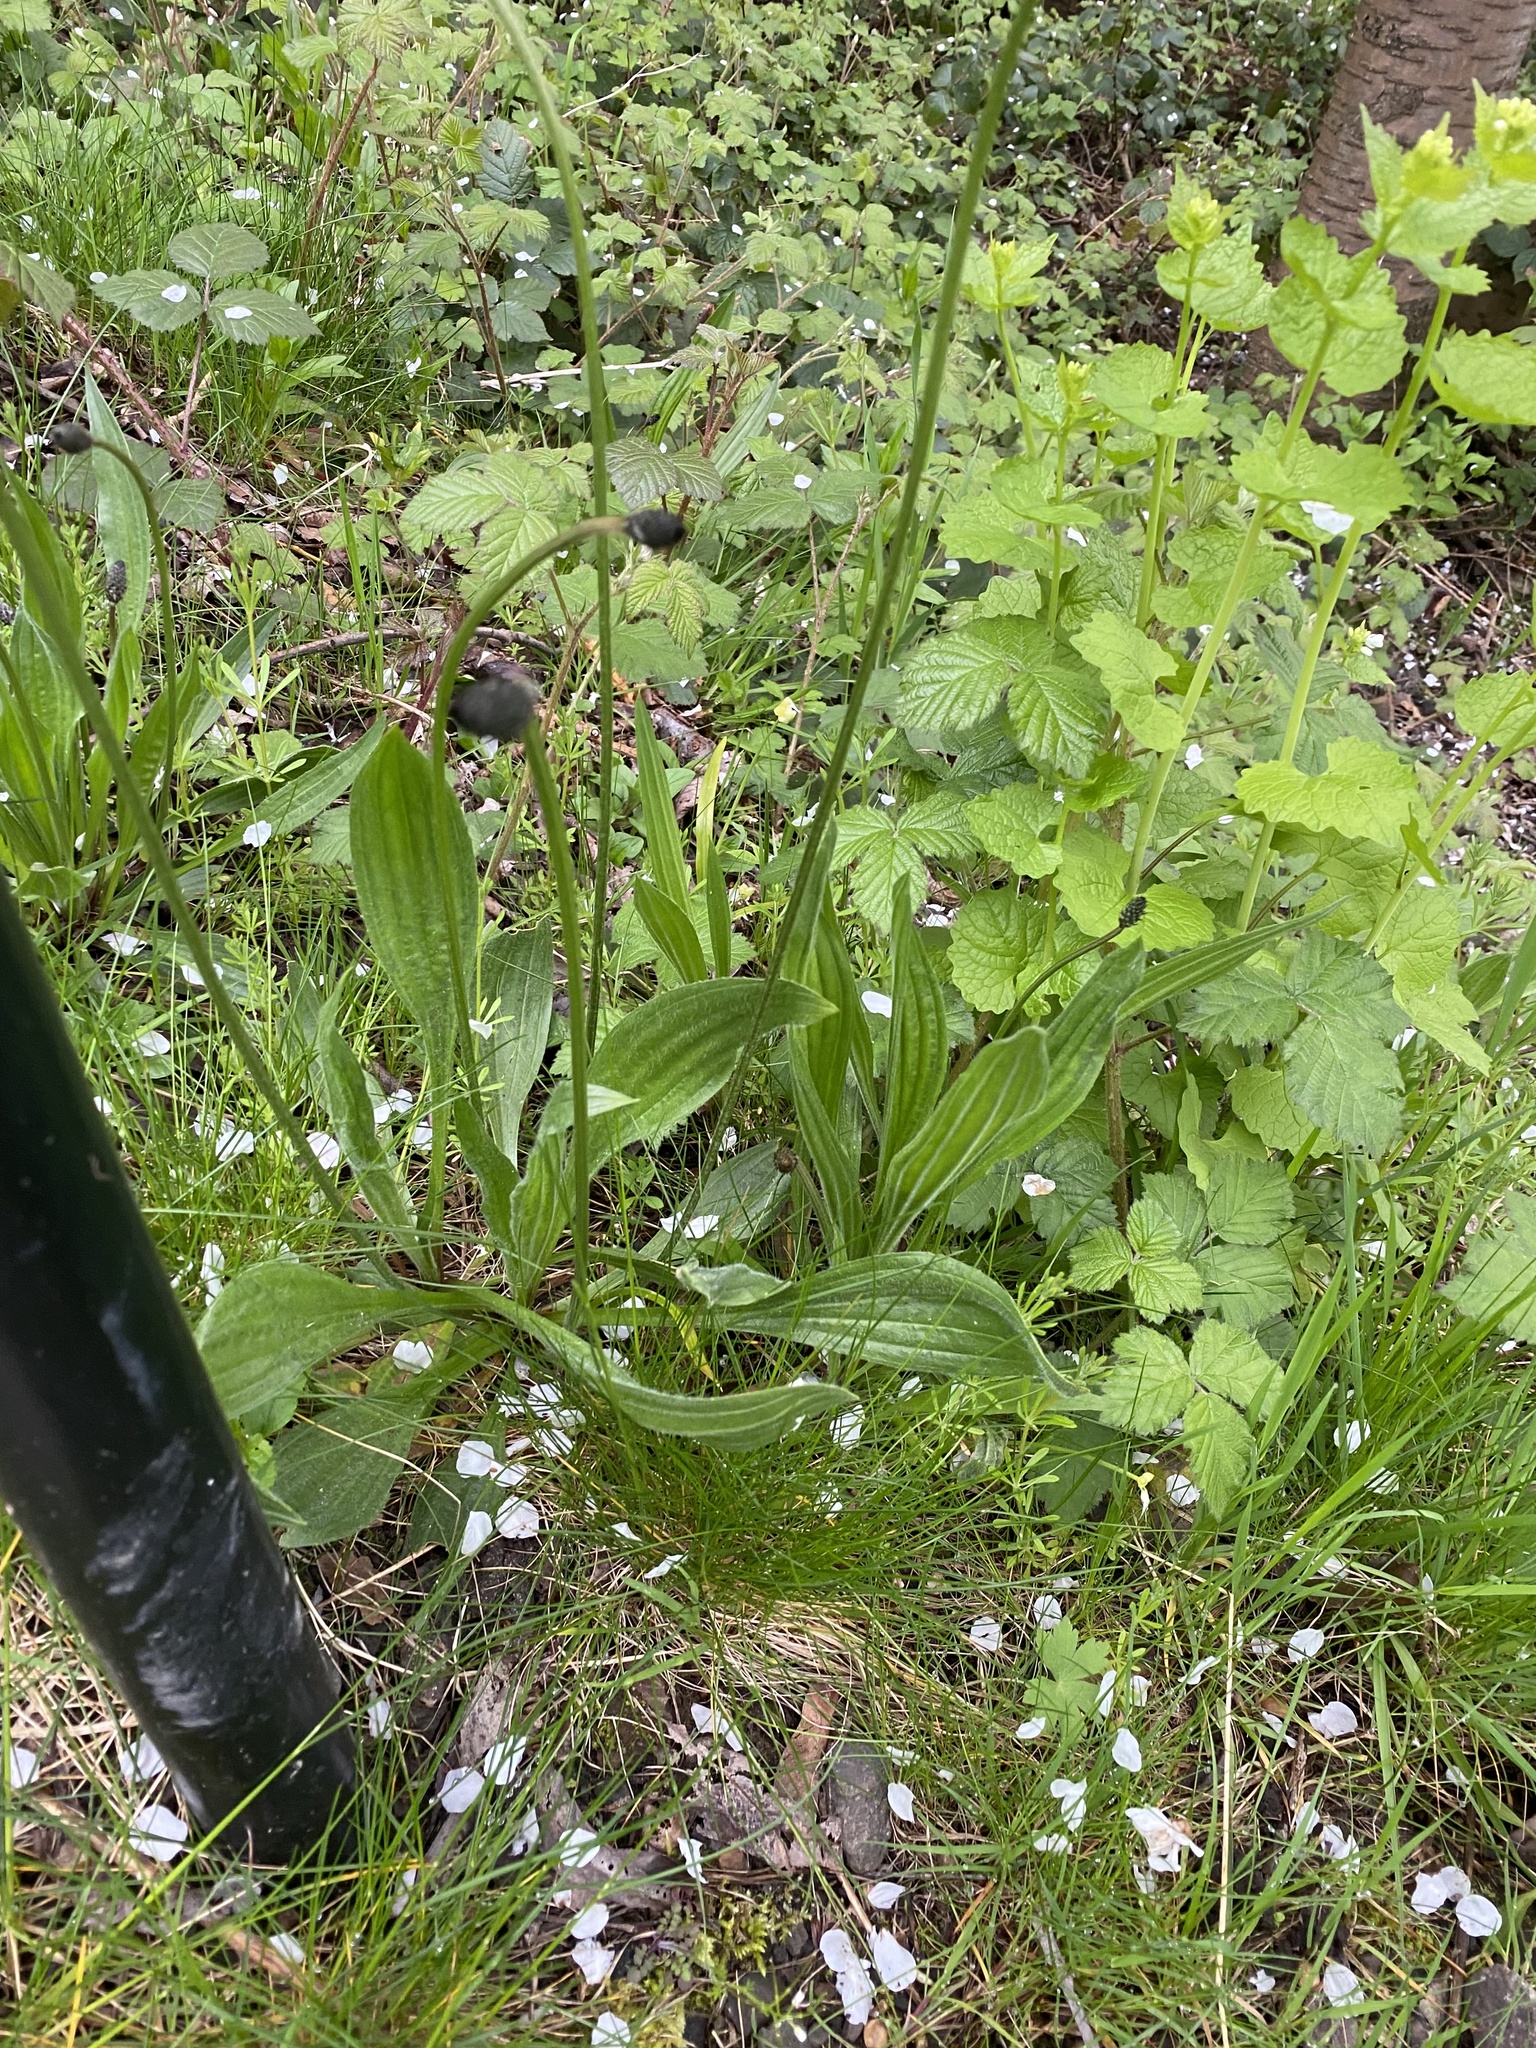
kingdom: Plantae
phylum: Tracheophyta
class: Magnoliopsida
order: Lamiales
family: Plantaginaceae
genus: Plantago
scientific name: Plantago lanceolata
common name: Ribwort plantain
